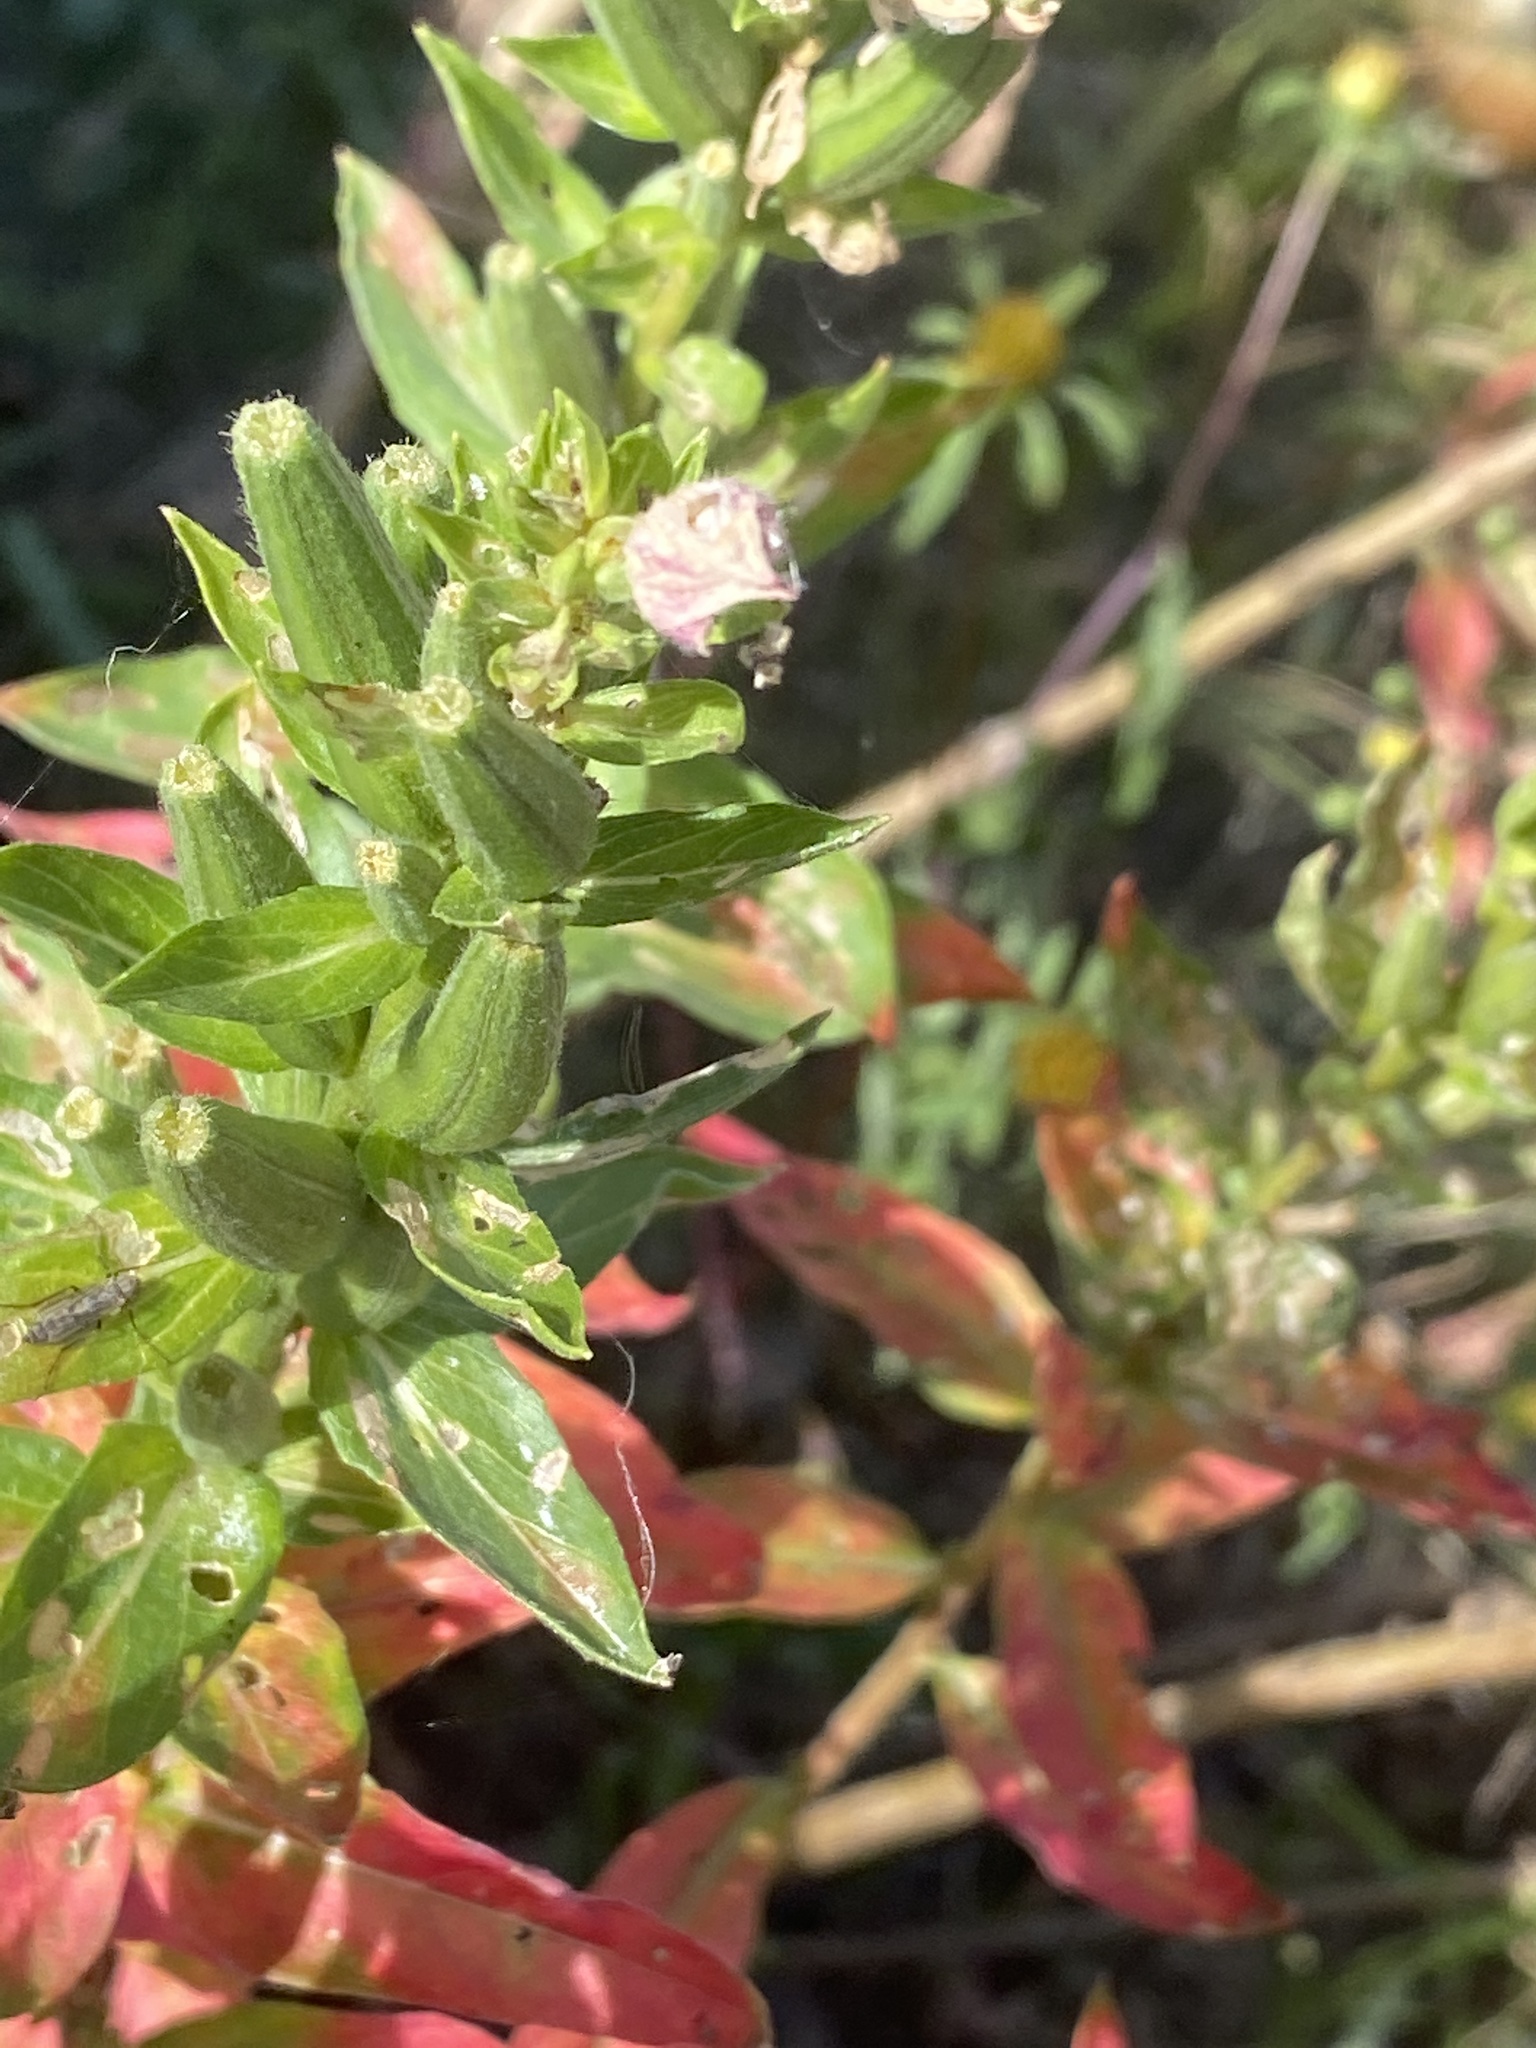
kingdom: Plantae
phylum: Tracheophyta
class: Magnoliopsida
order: Myrtales
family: Onagraceae
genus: Oenothera
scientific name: Oenothera biennis
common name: Common evening-primrose
